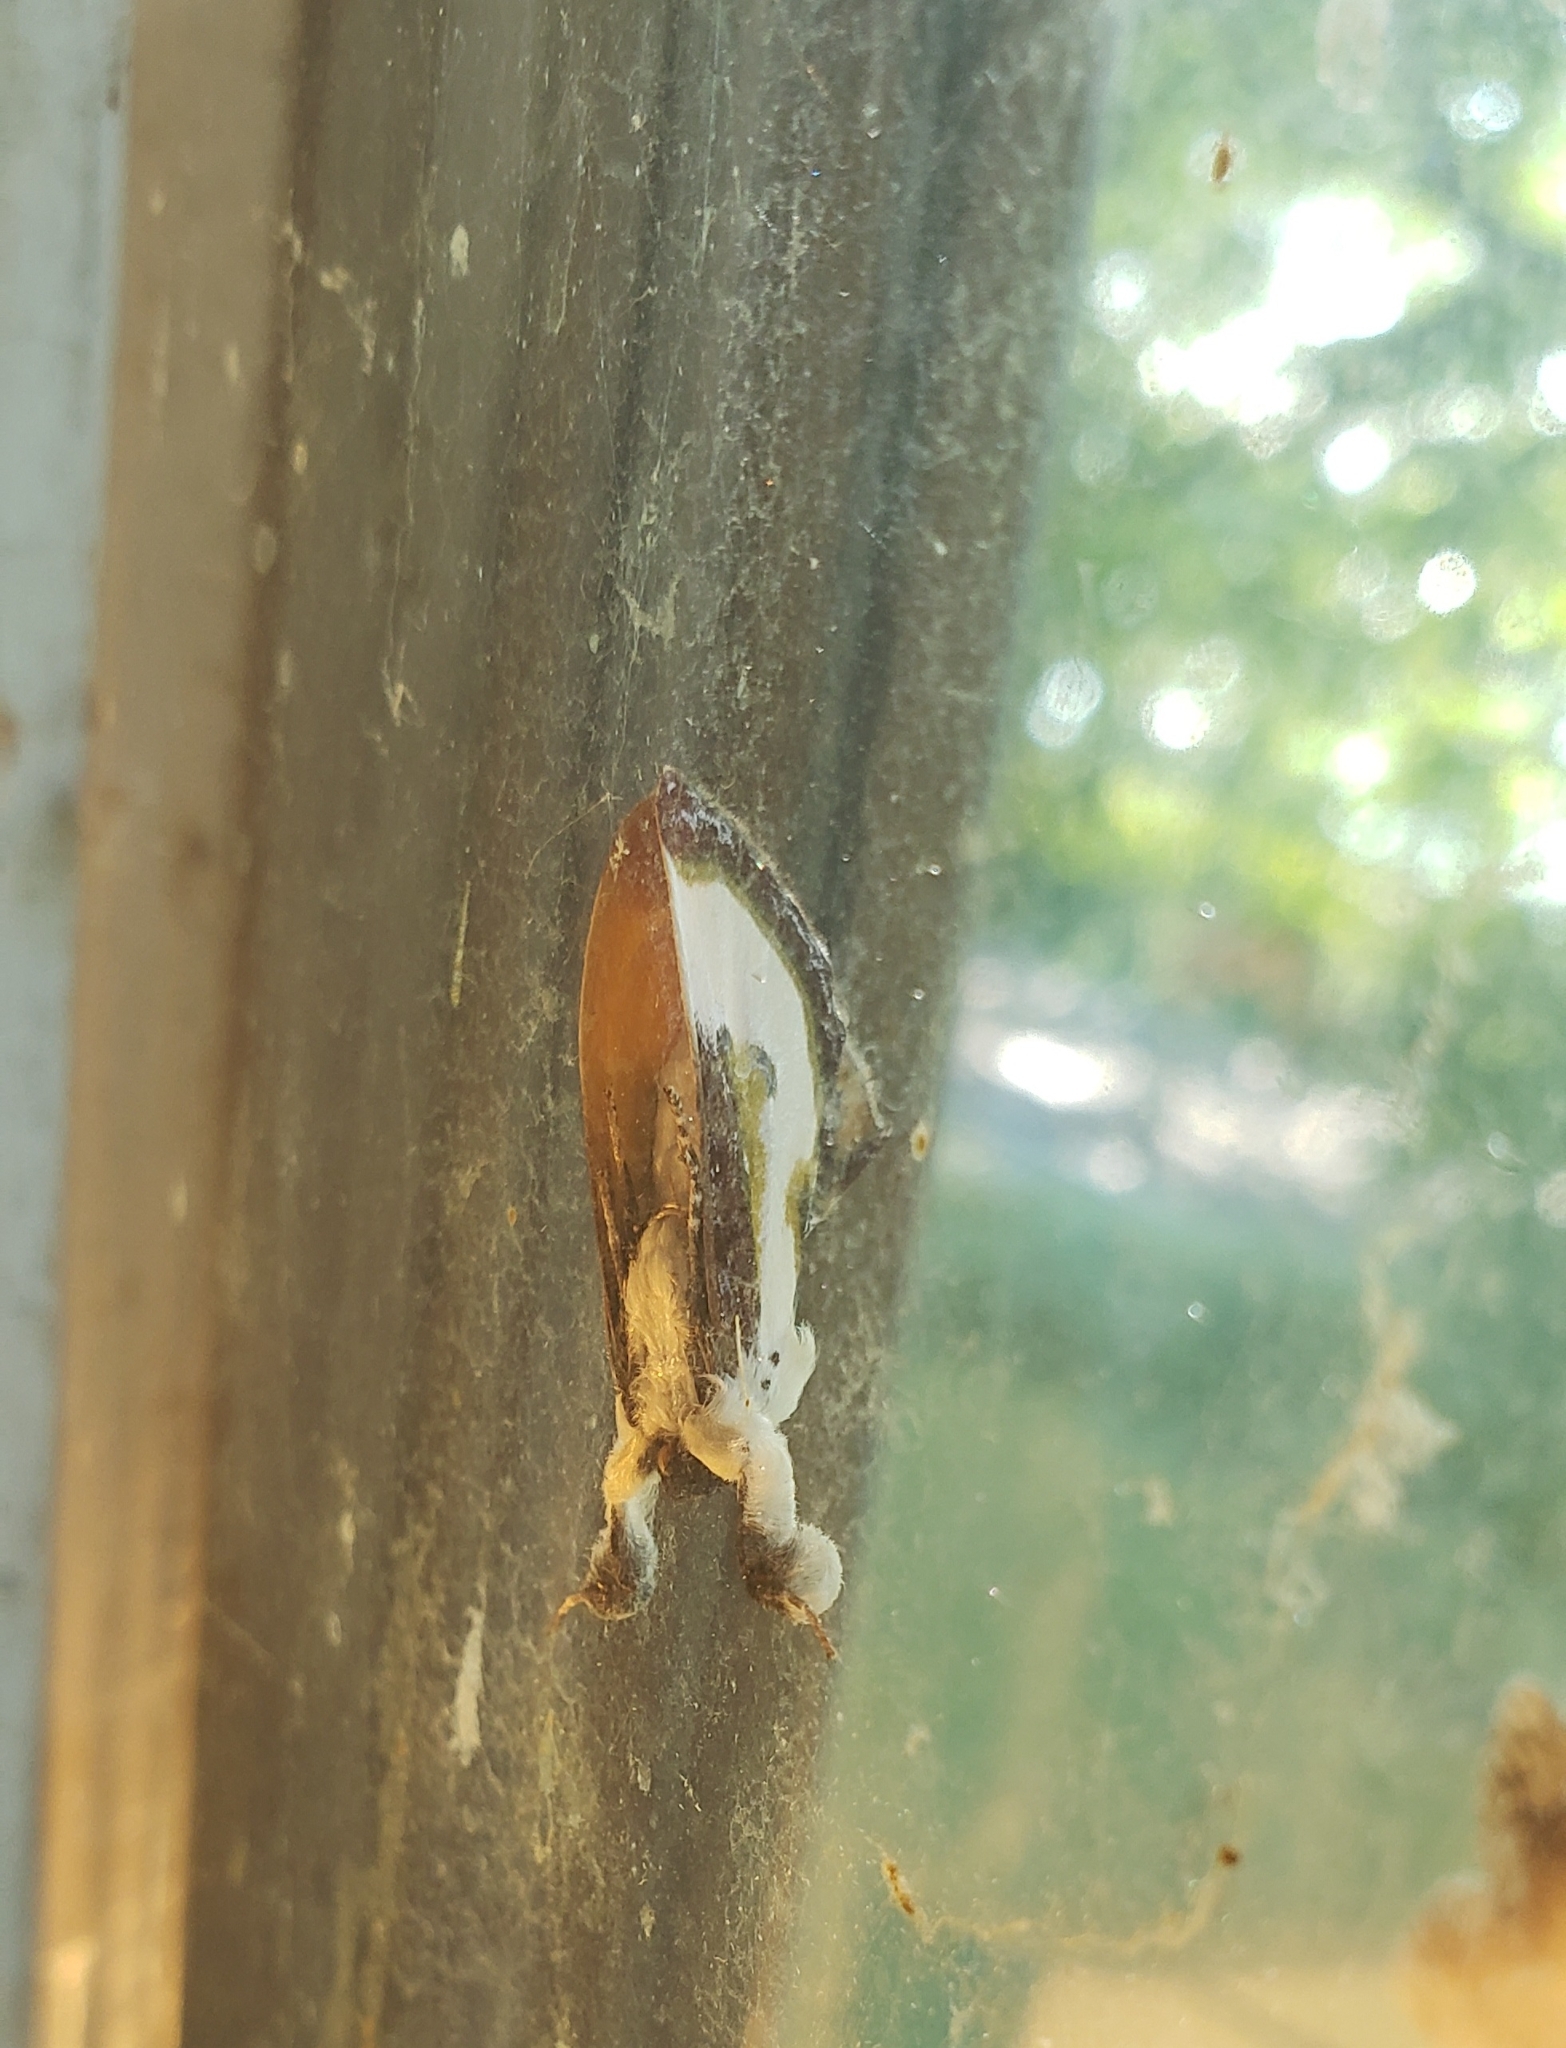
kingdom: Animalia
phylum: Arthropoda
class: Insecta
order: Lepidoptera
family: Noctuidae
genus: Eudryas
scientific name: Eudryas grata
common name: Beautiful wood-nymph
